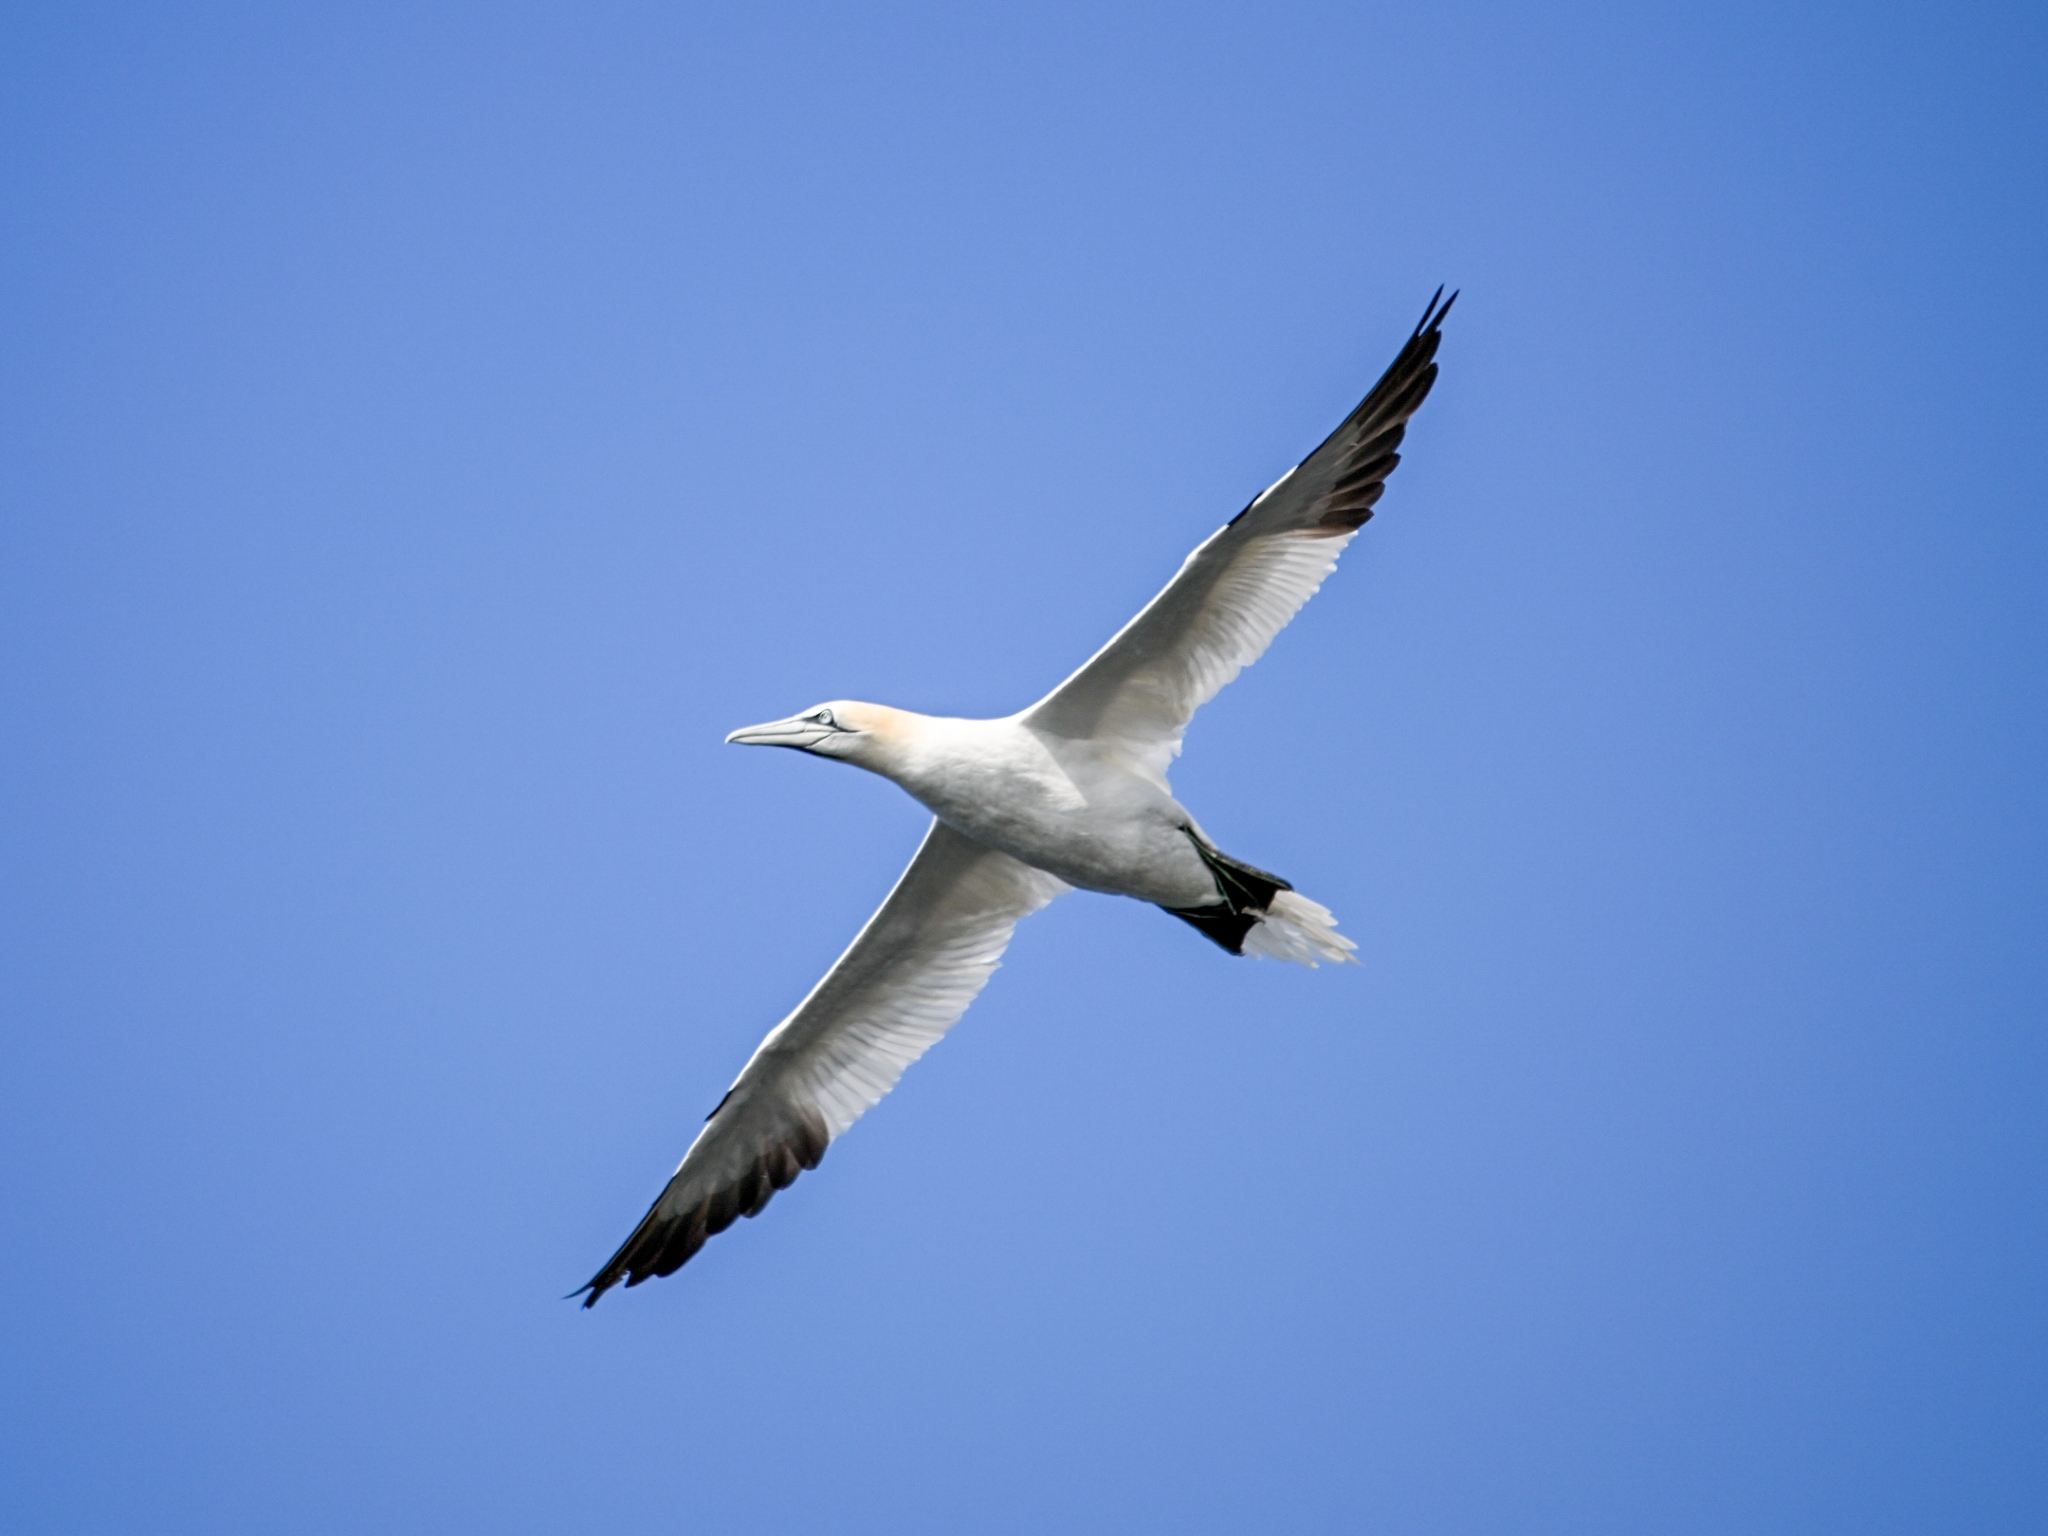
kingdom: Animalia
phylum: Chordata
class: Aves
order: Suliformes
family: Sulidae
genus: Morus
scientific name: Morus bassanus
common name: Northern gannet
